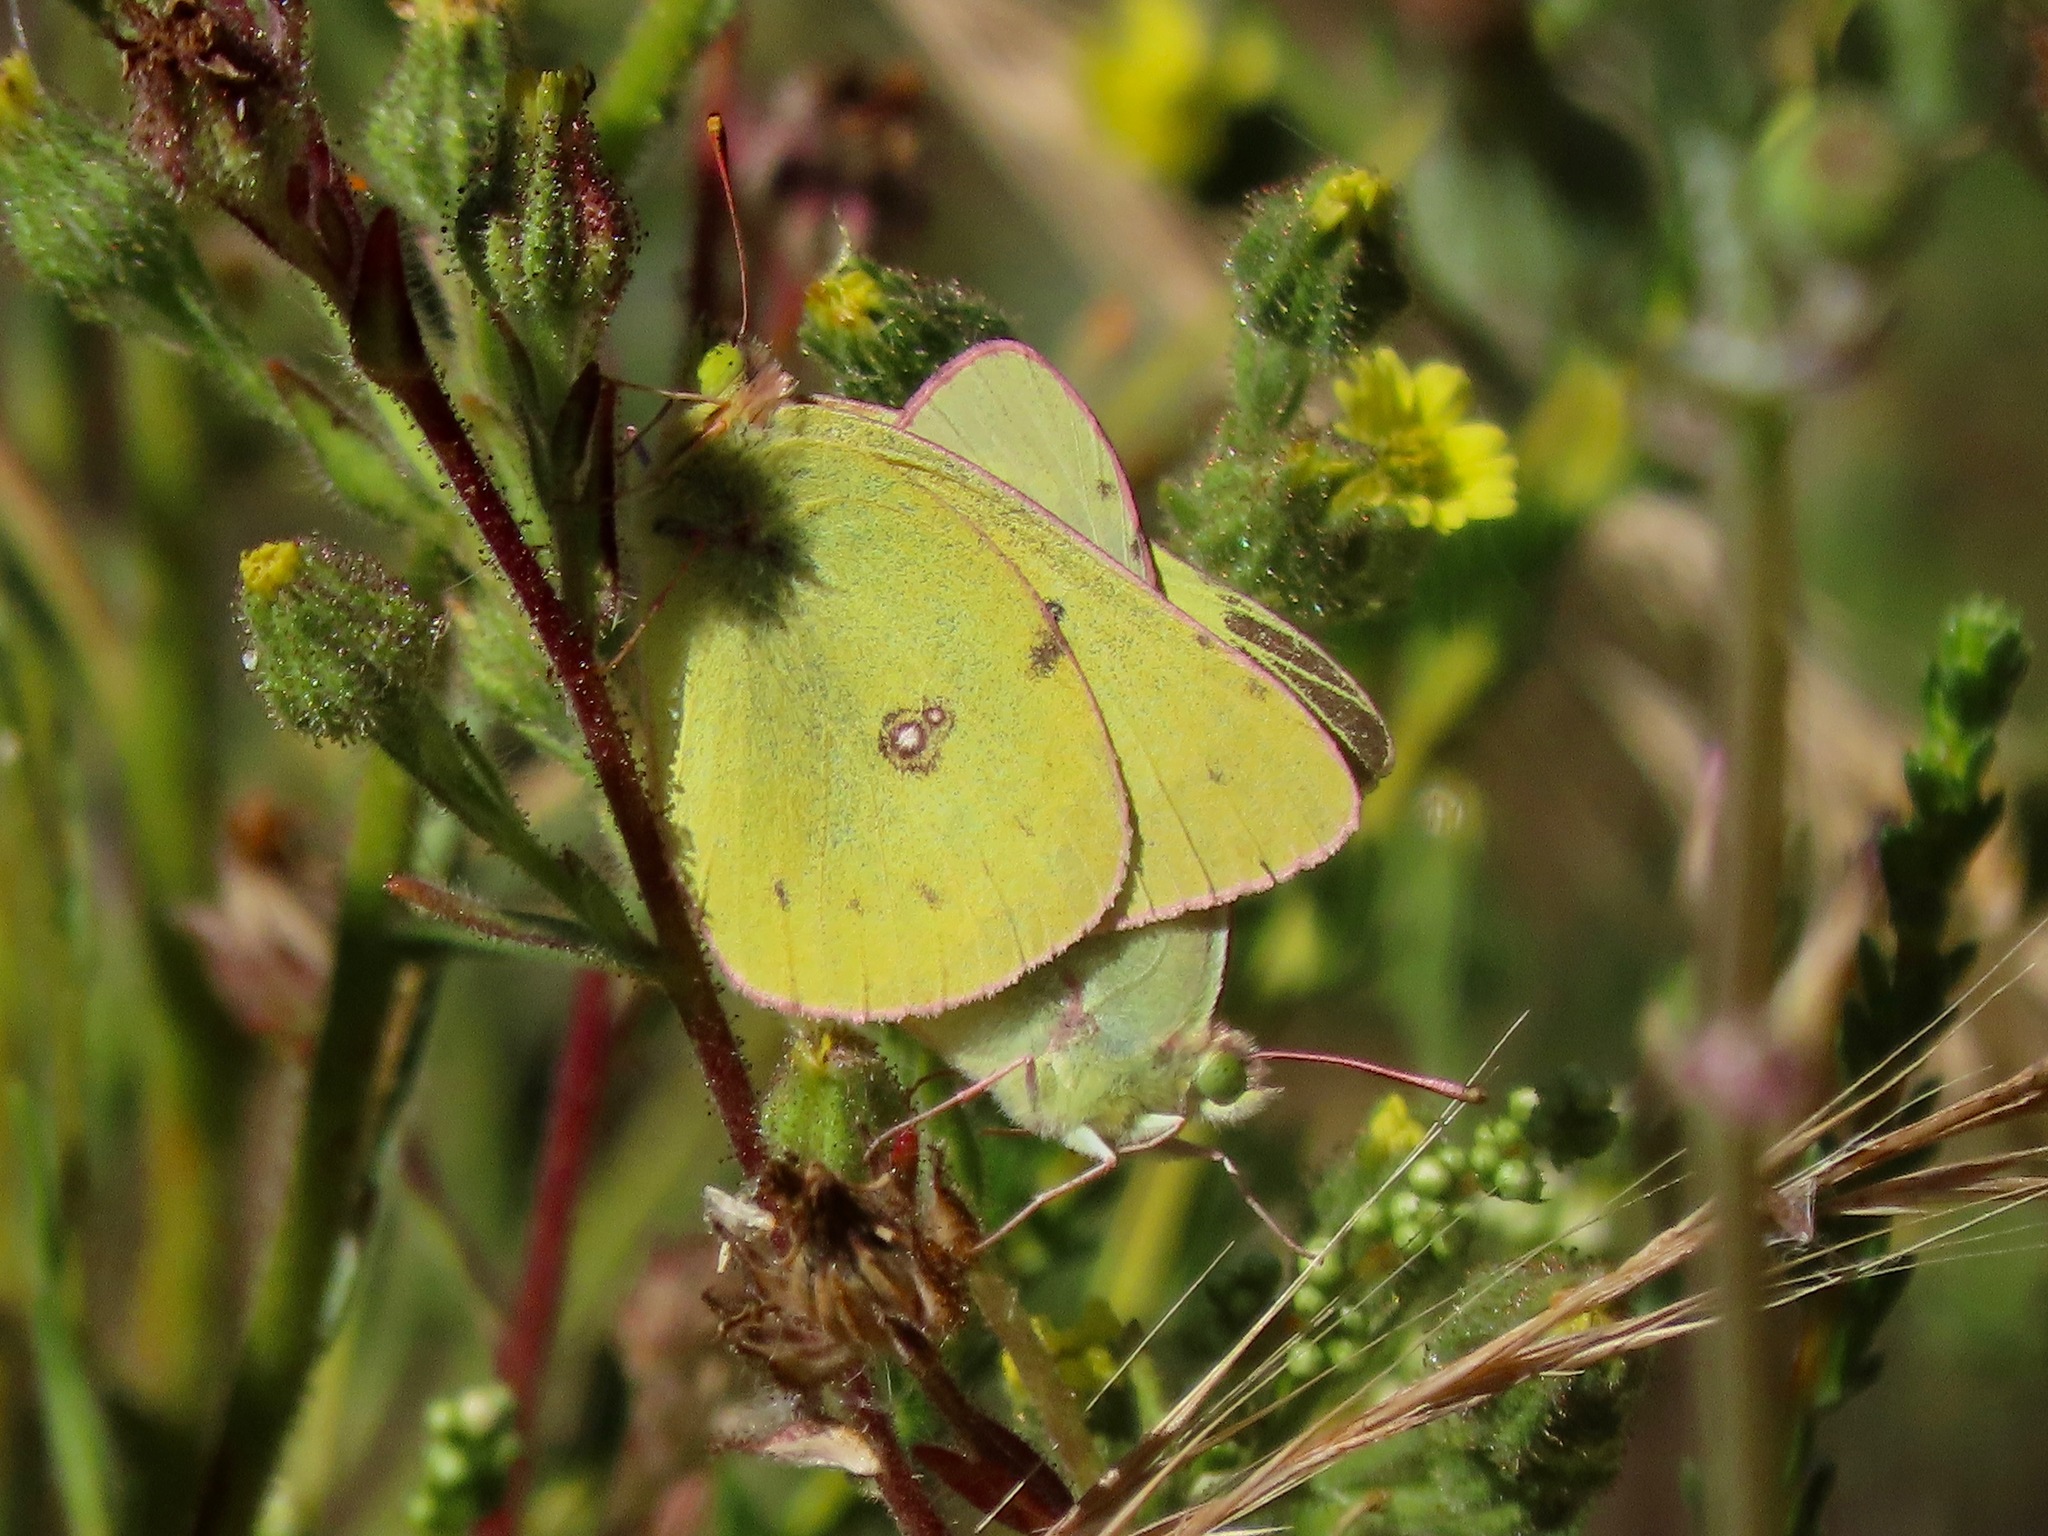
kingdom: Animalia
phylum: Arthropoda
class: Insecta
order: Lepidoptera
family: Pieridae
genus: Colias
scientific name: Colias eurytheme
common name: Alfalfa butterfly
